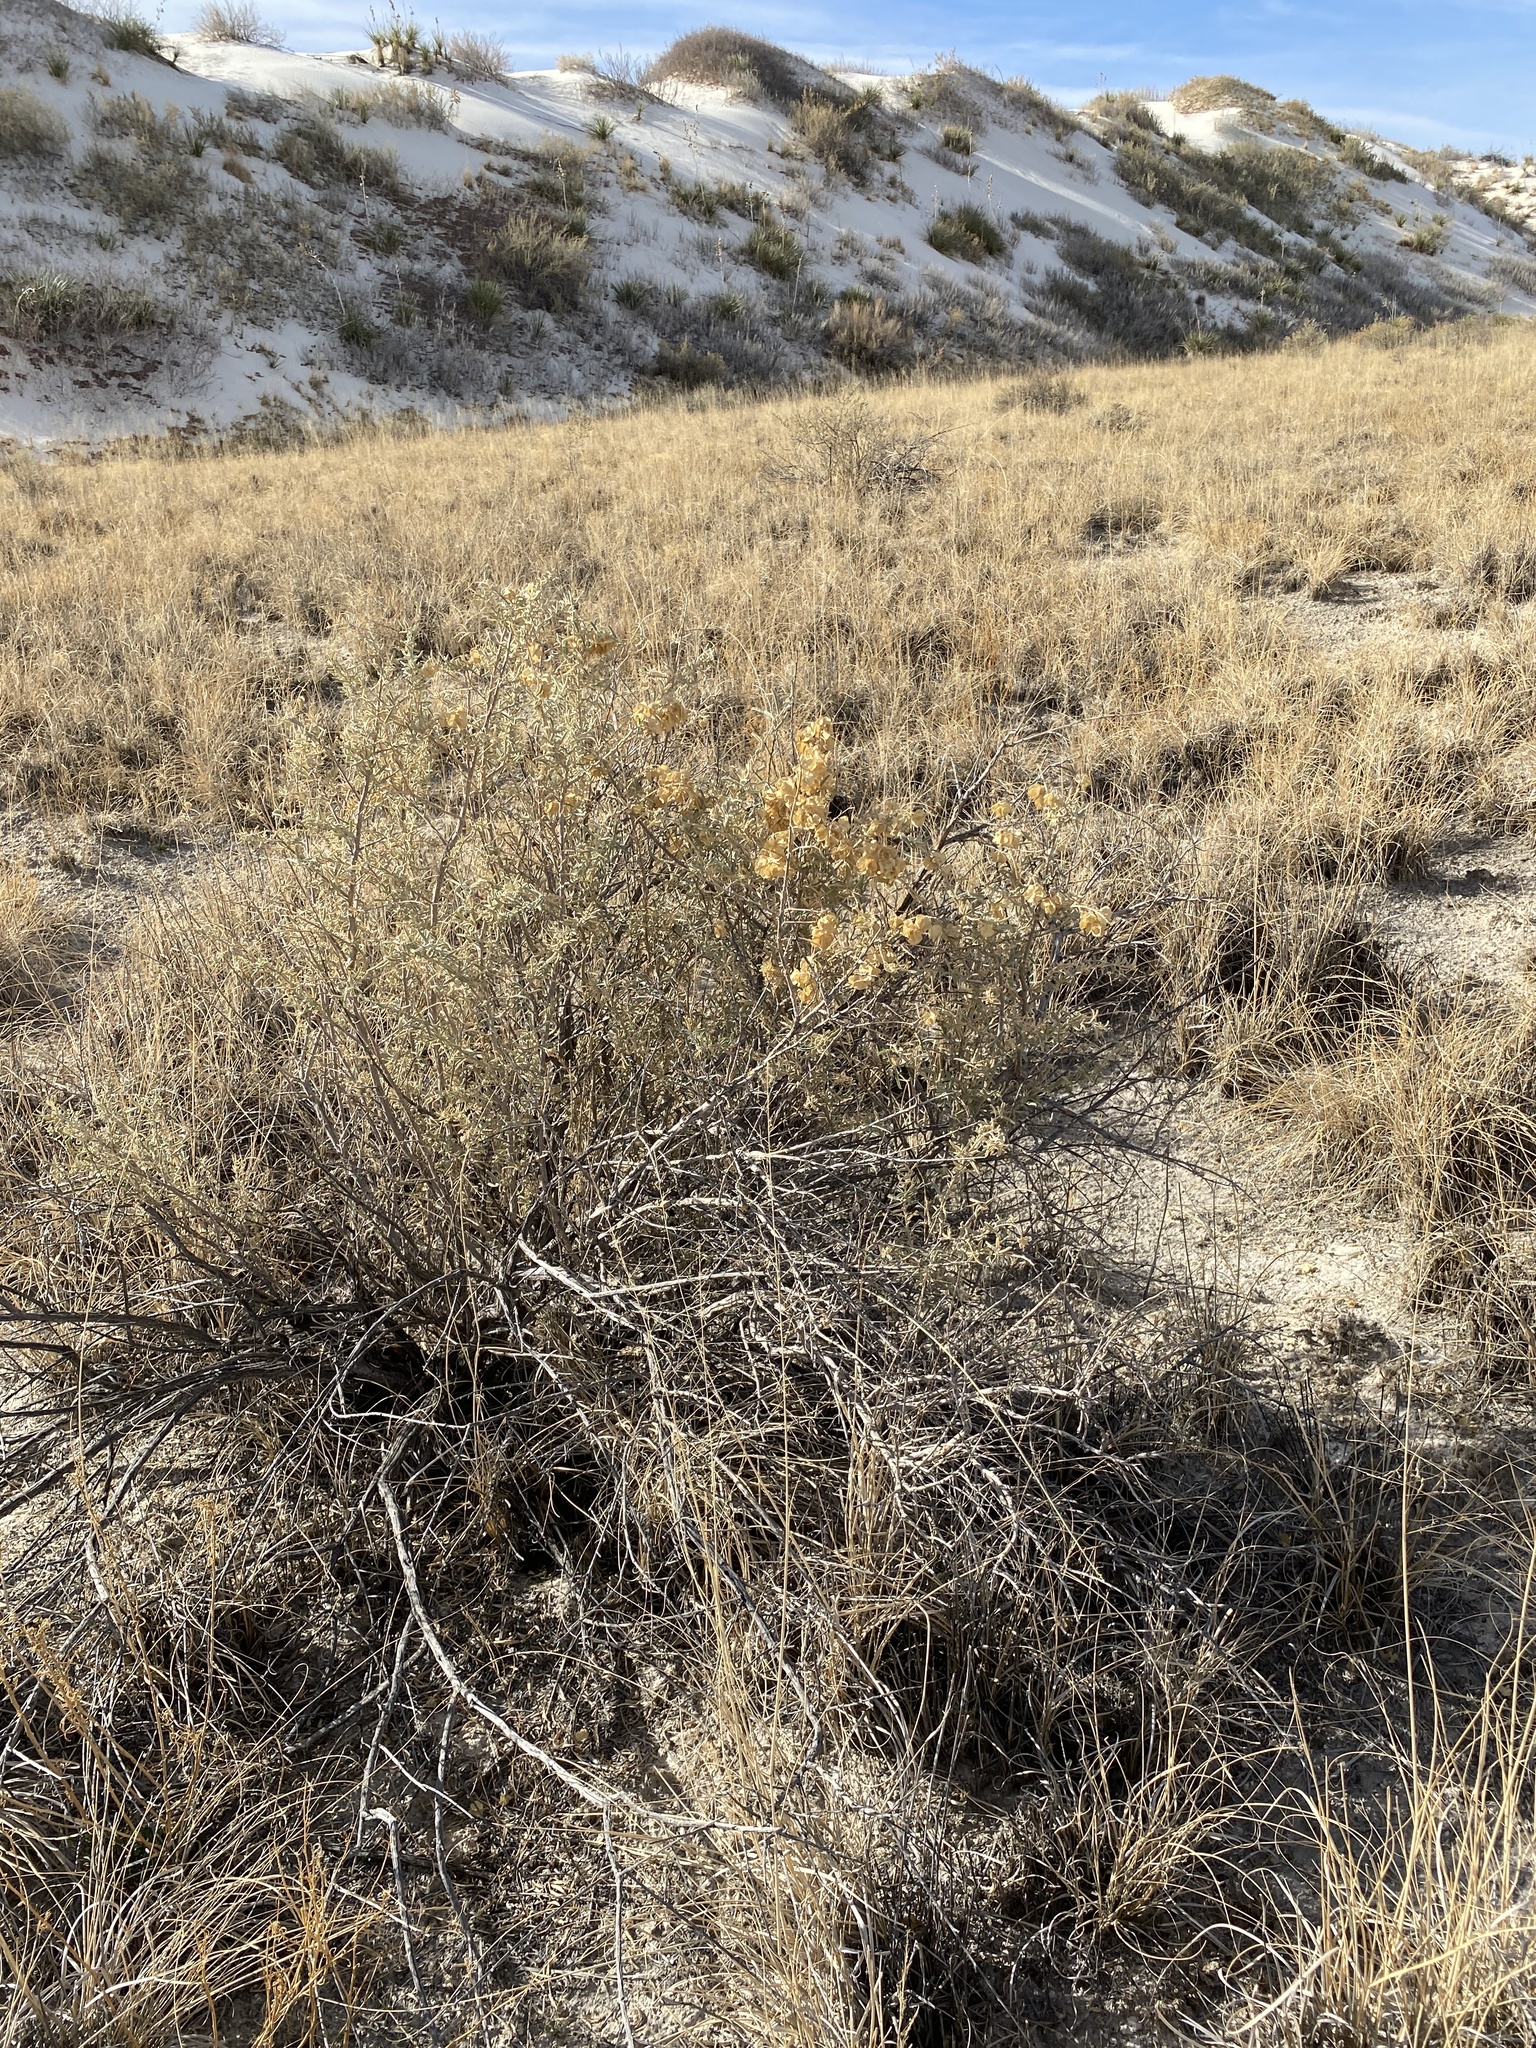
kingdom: Plantae
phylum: Tracheophyta
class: Magnoliopsida
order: Caryophyllales
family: Amaranthaceae
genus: Atriplex
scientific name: Atriplex canescens
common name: Four-wing saltbush
